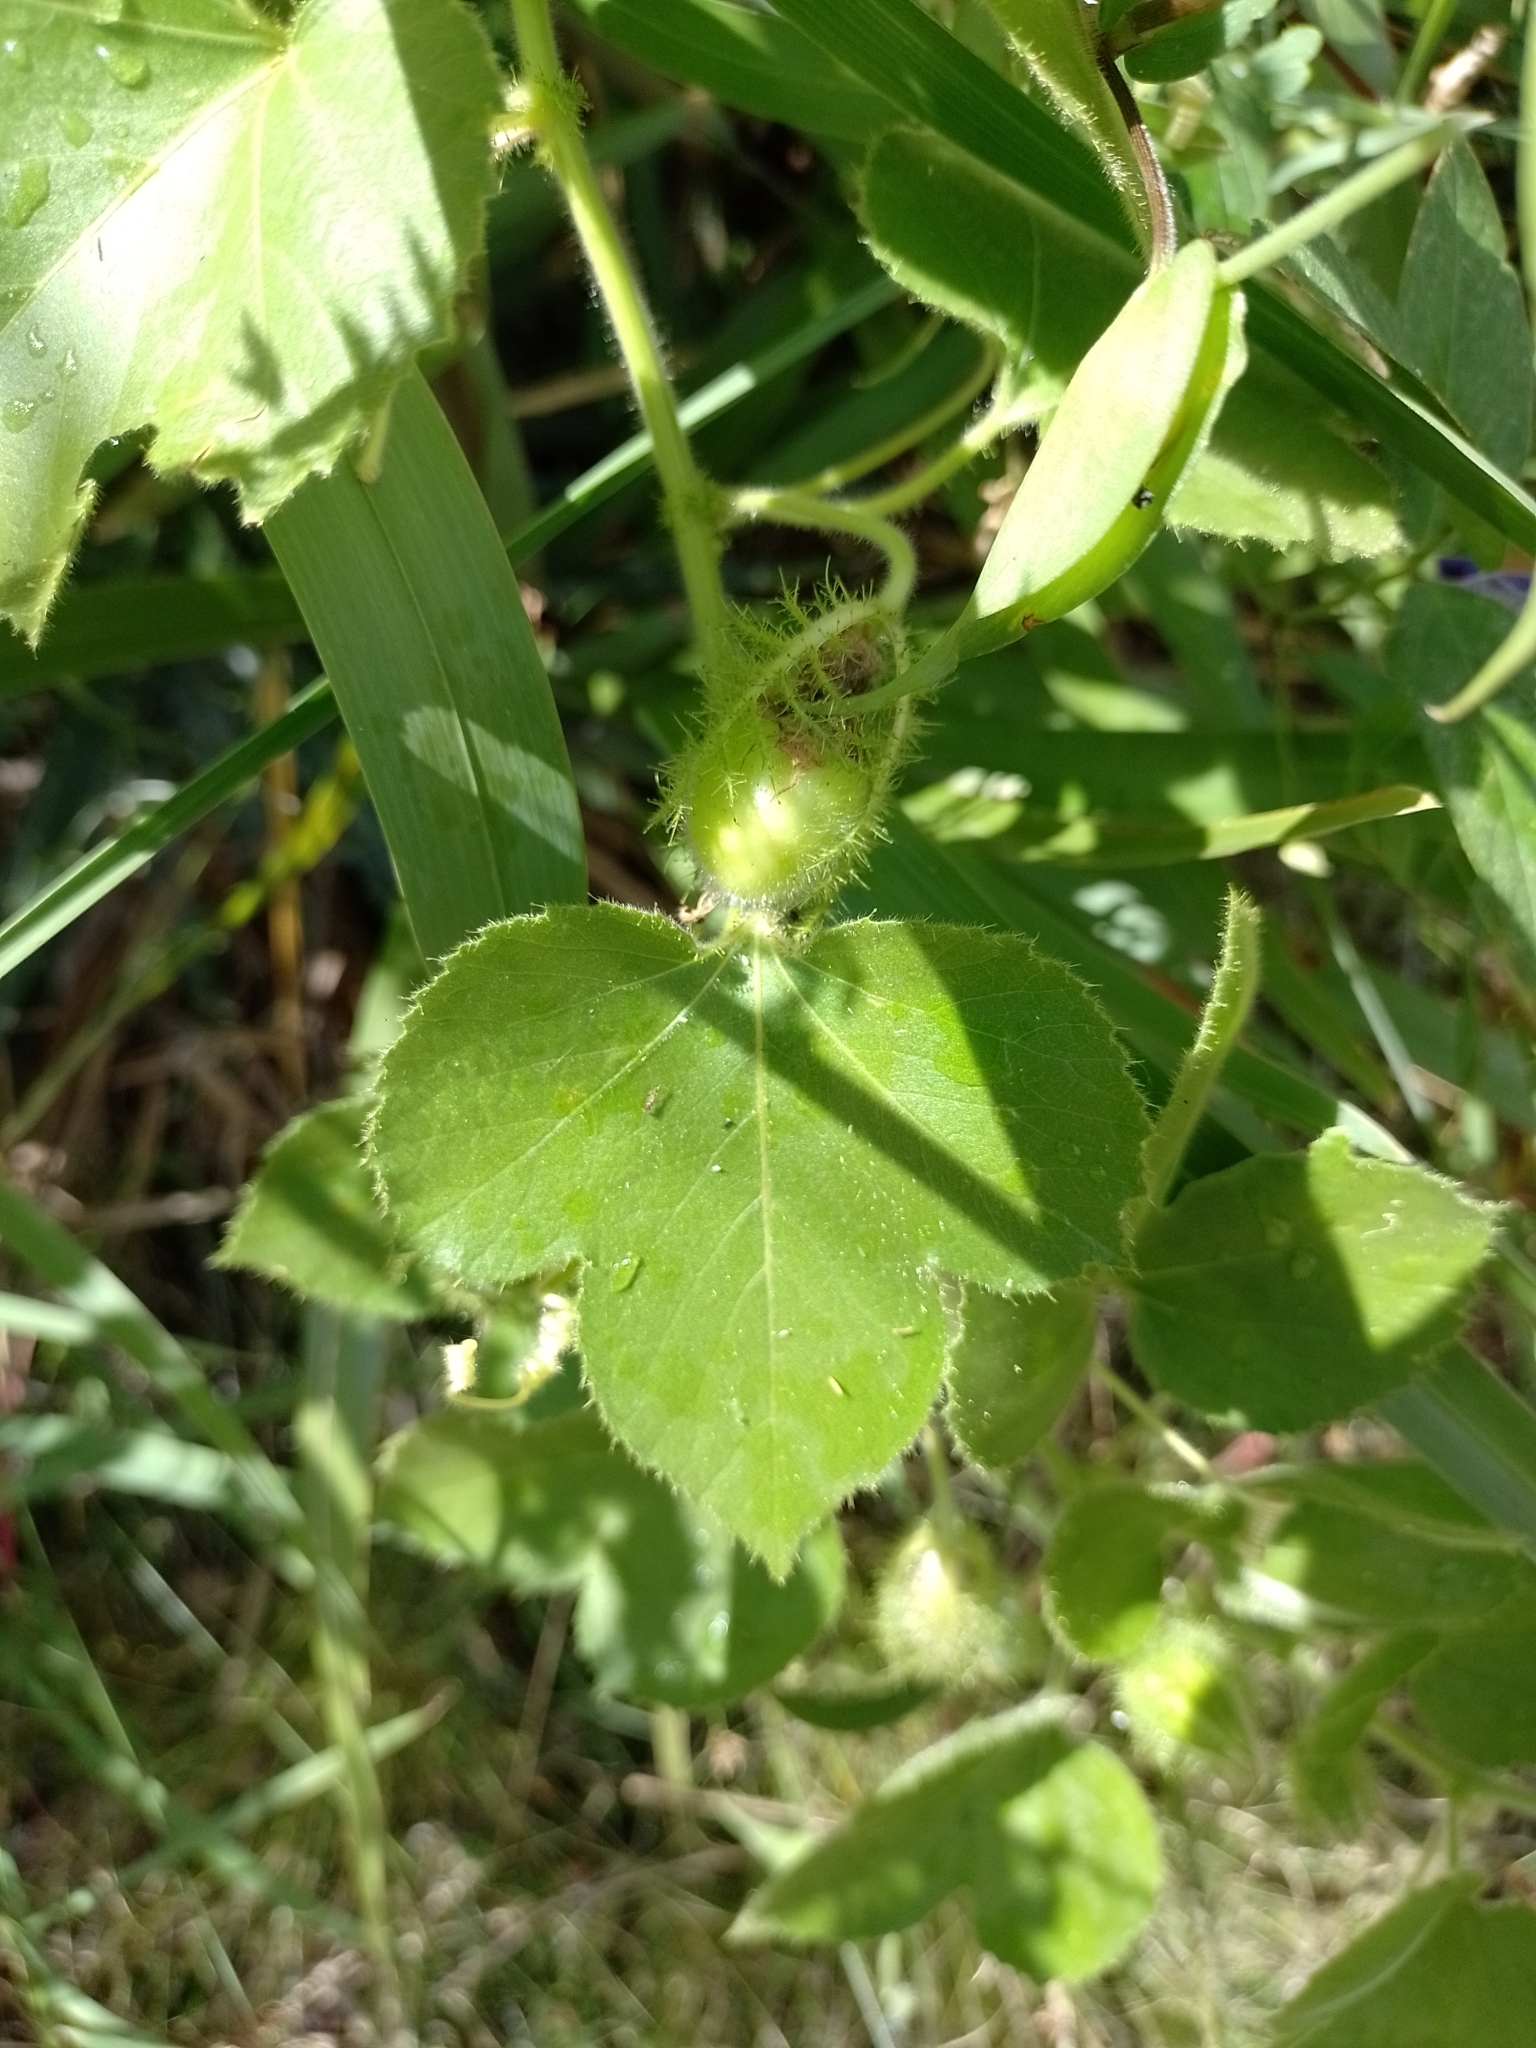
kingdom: Plantae
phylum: Tracheophyta
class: Magnoliopsida
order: Malpighiales
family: Passifloraceae
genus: Passiflora
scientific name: Passiflora foetida
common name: Fetid passionflower
